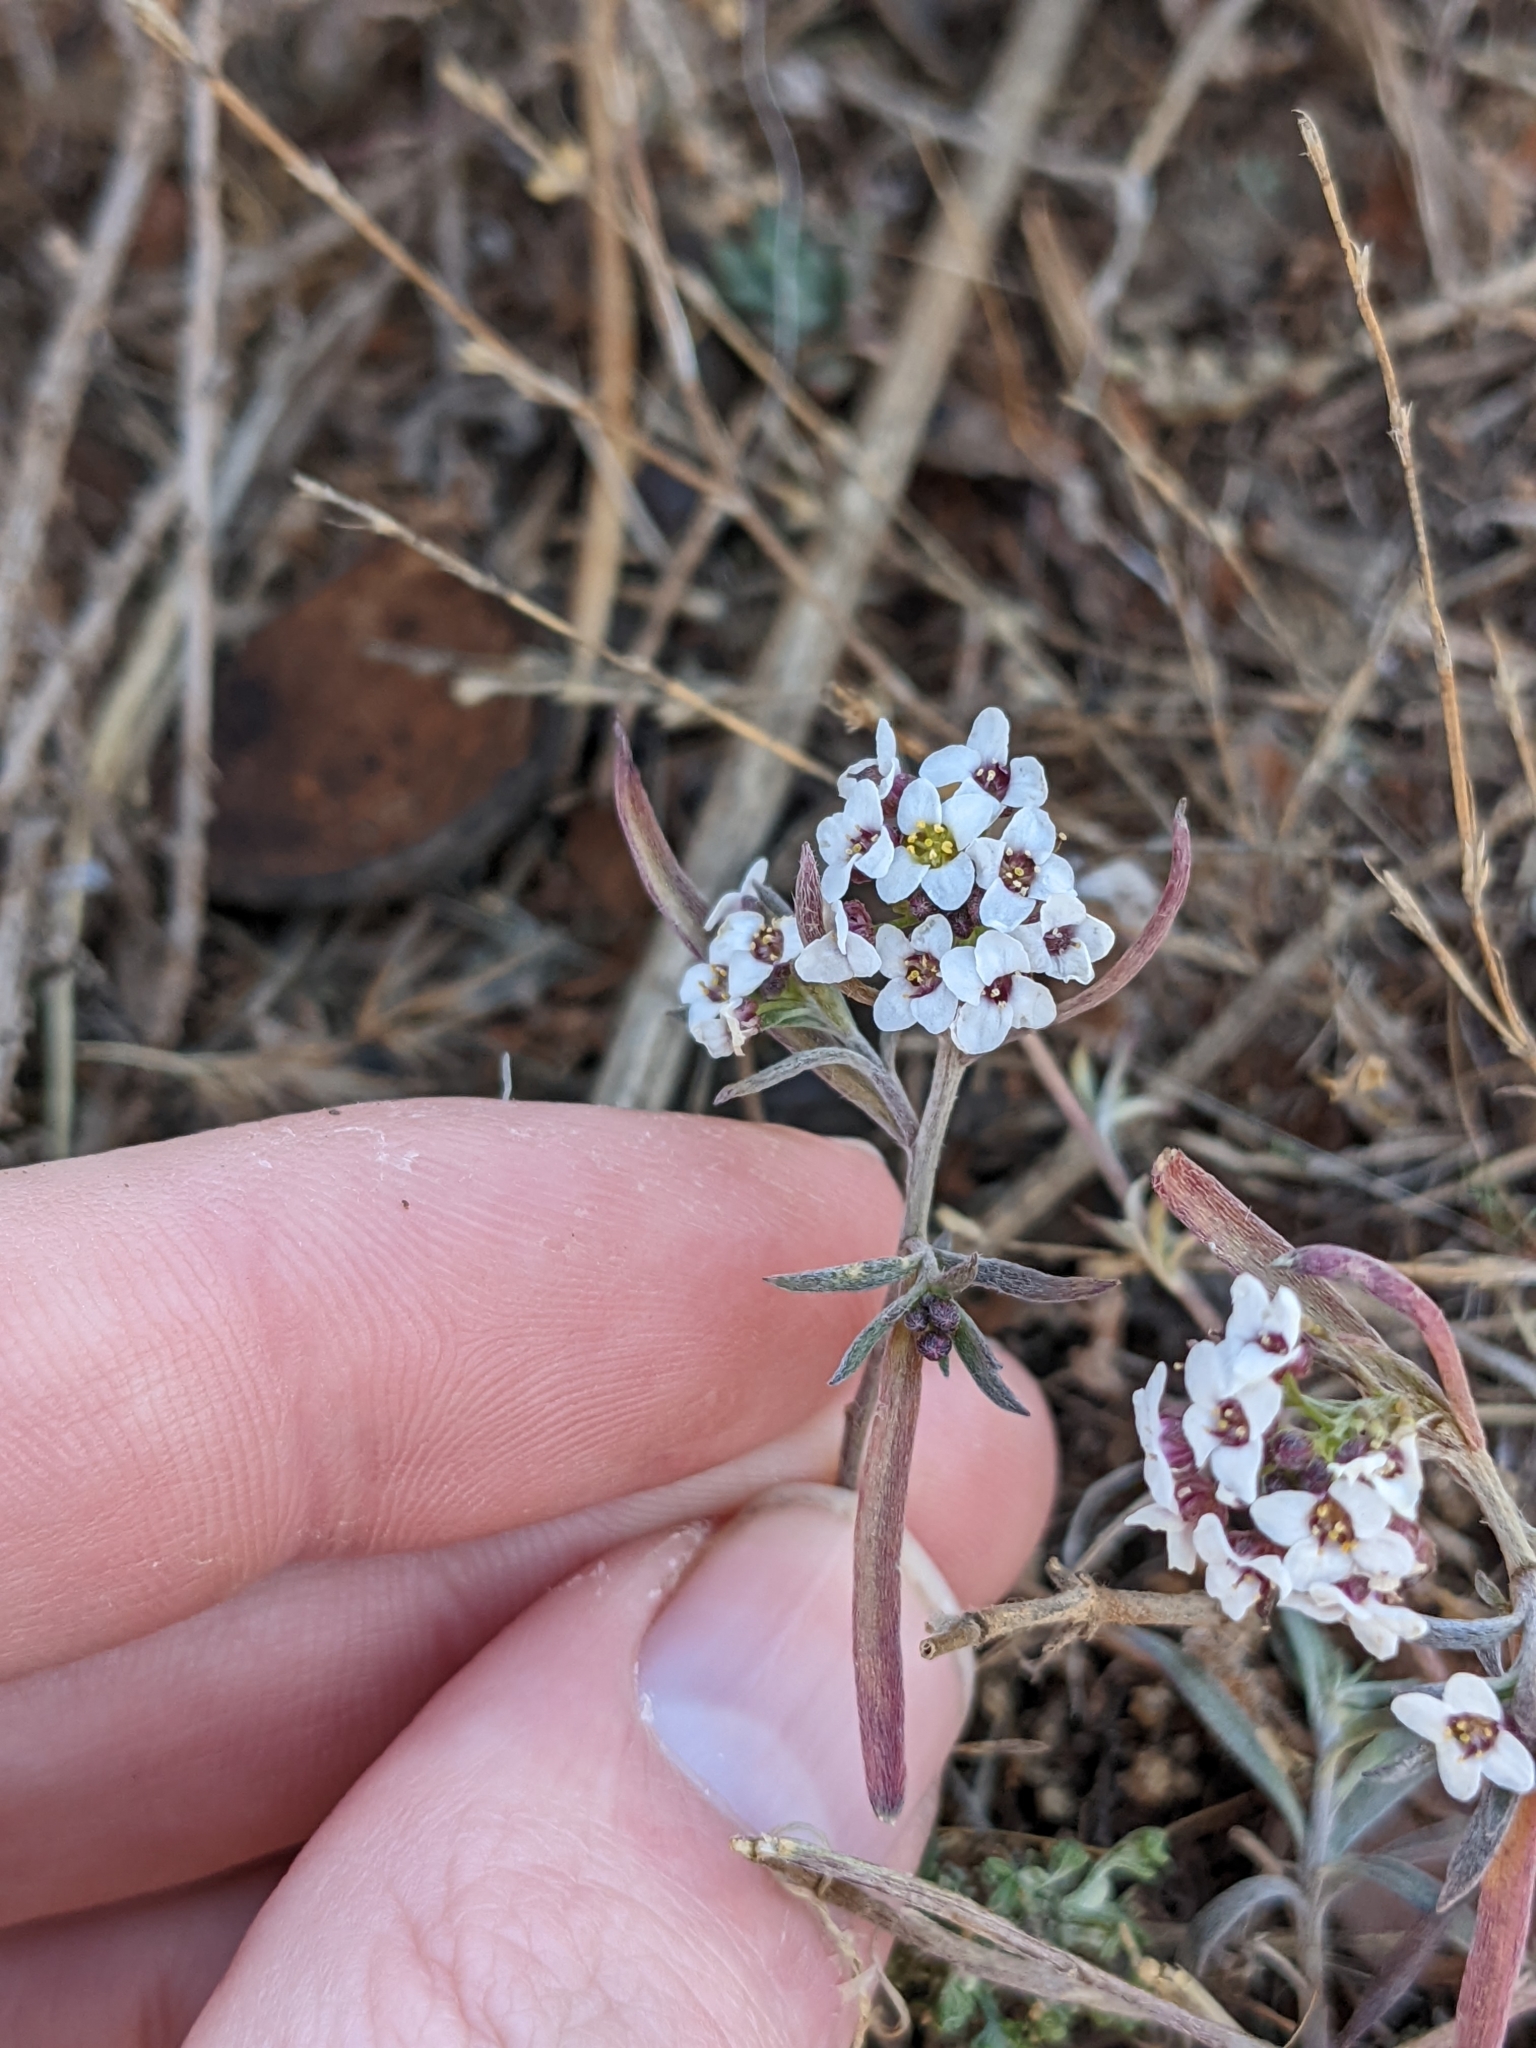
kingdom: Plantae
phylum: Tracheophyta
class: Magnoliopsida
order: Brassicales
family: Brassicaceae
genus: Lobularia
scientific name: Lobularia maritima
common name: Sweet alison
